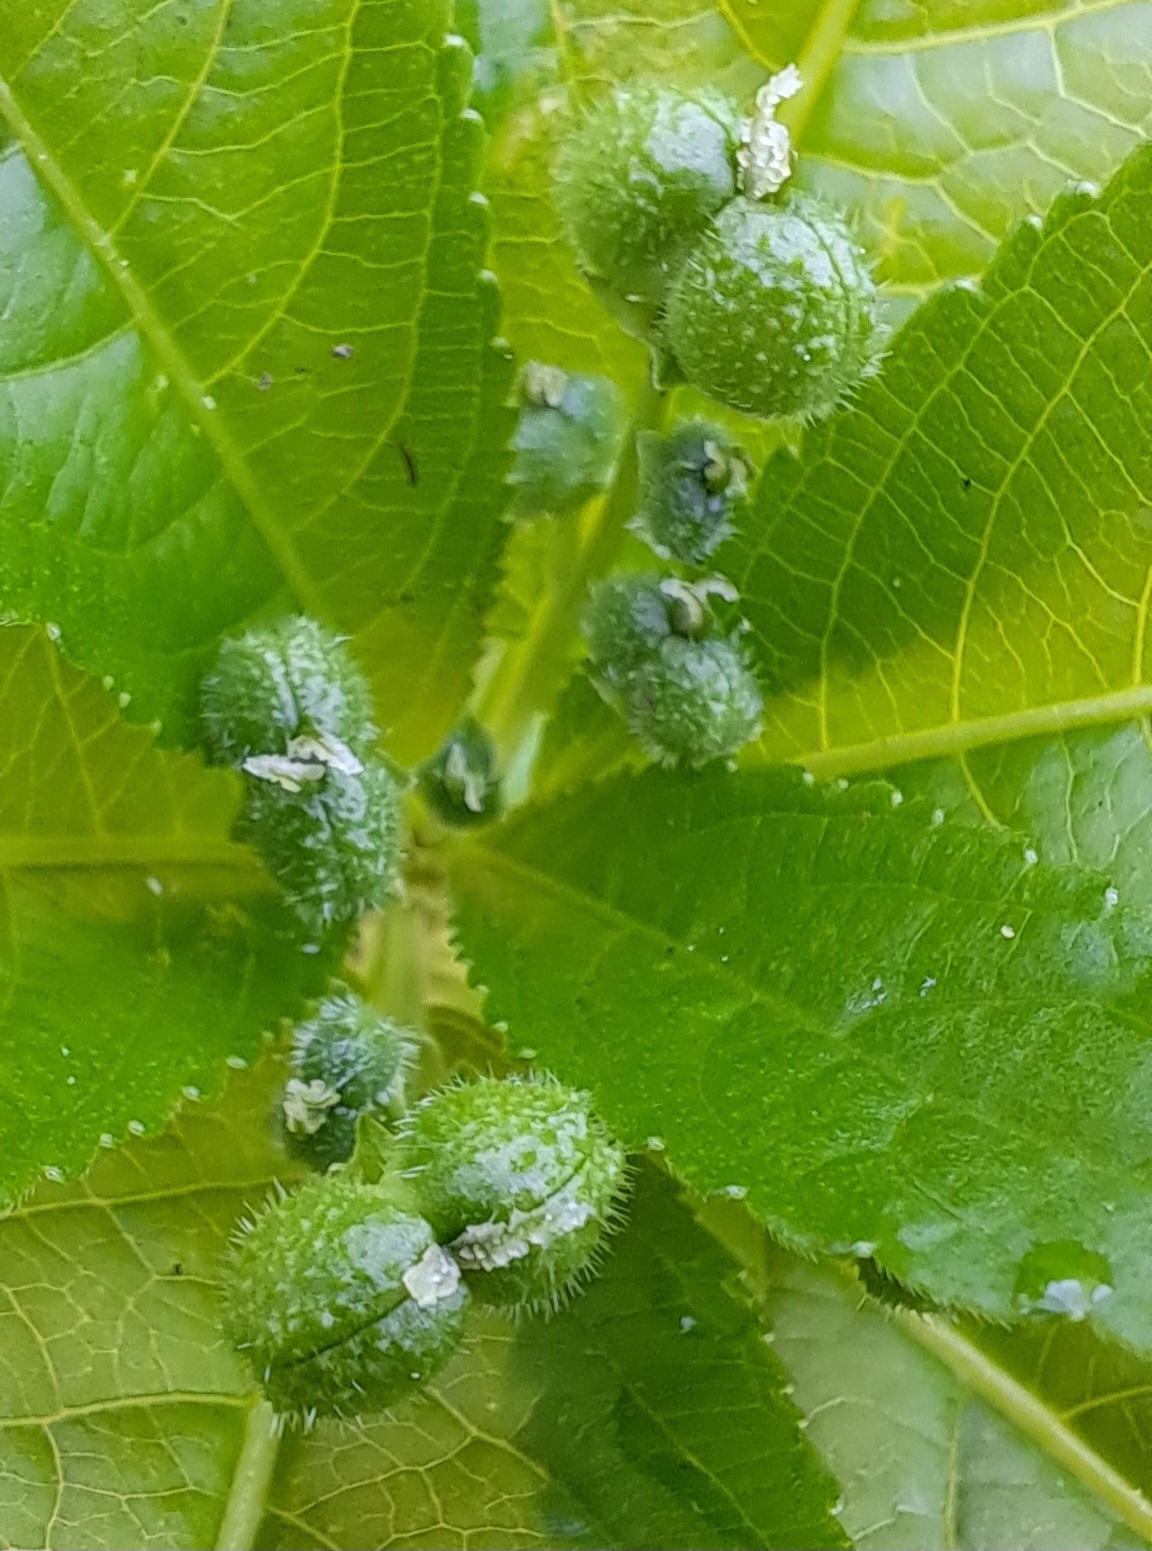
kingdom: Plantae
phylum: Tracheophyta
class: Magnoliopsida
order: Malpighiales
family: Euphorbiaceae
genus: Mercurialis
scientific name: Mercurialis perennis
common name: Dog mercury
